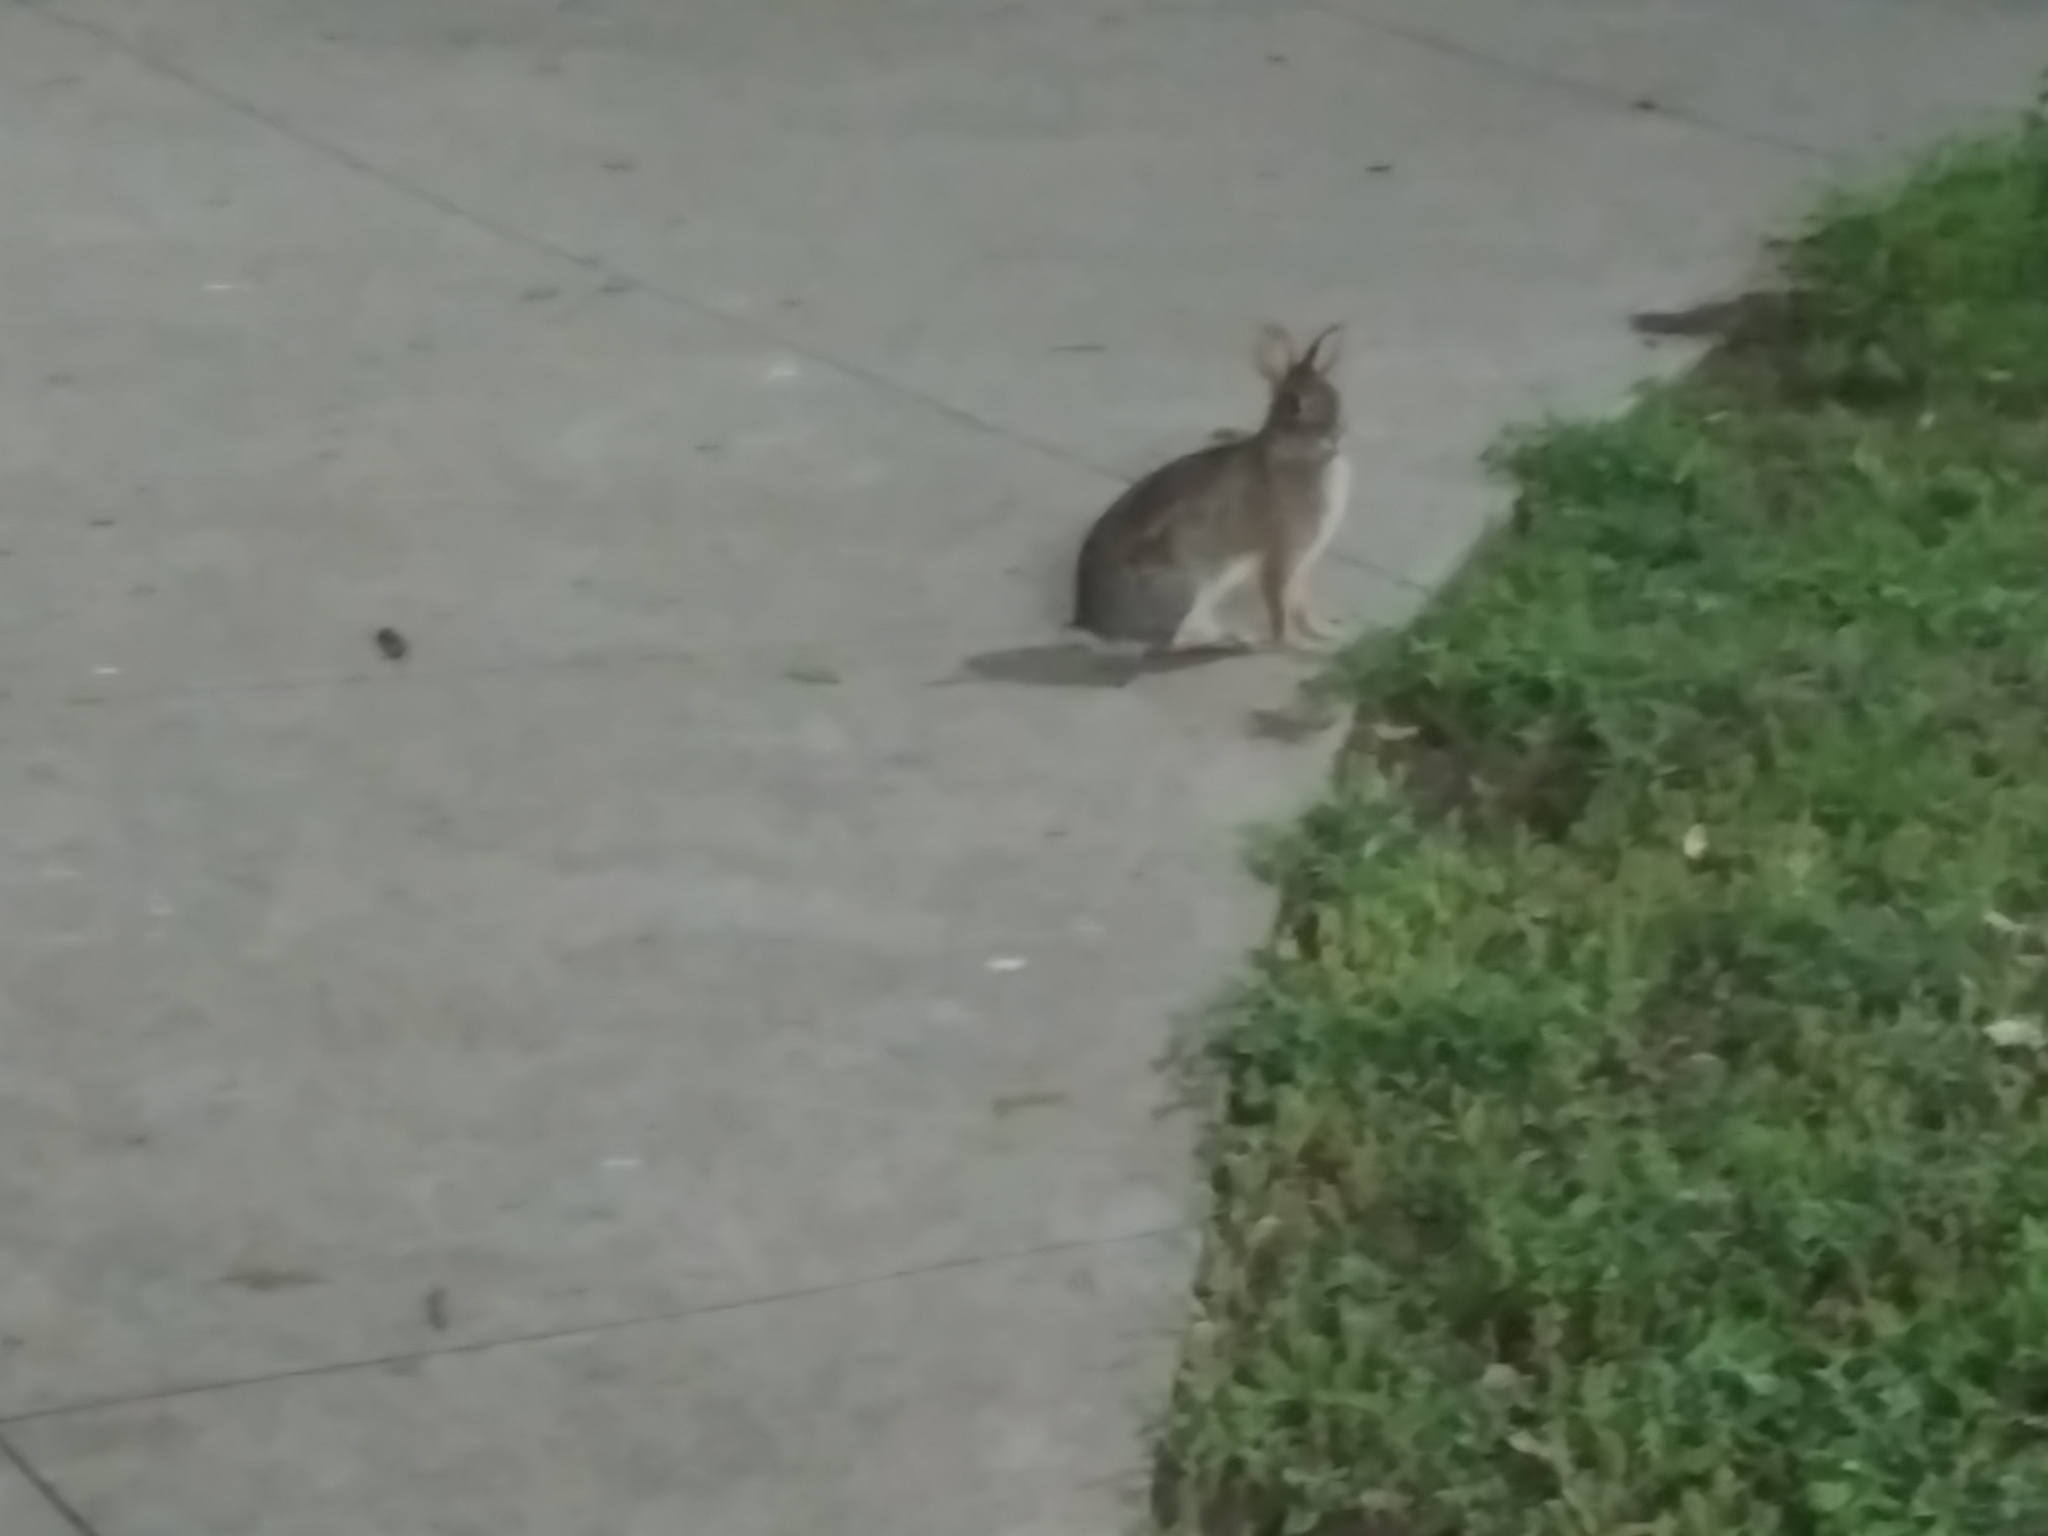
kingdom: Animalia
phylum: Chordata
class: Mammalia
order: Lagomorpha
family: Leporidae
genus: Sylvilagus
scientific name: Sylvilagus floridanus
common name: Eastern cottontail
